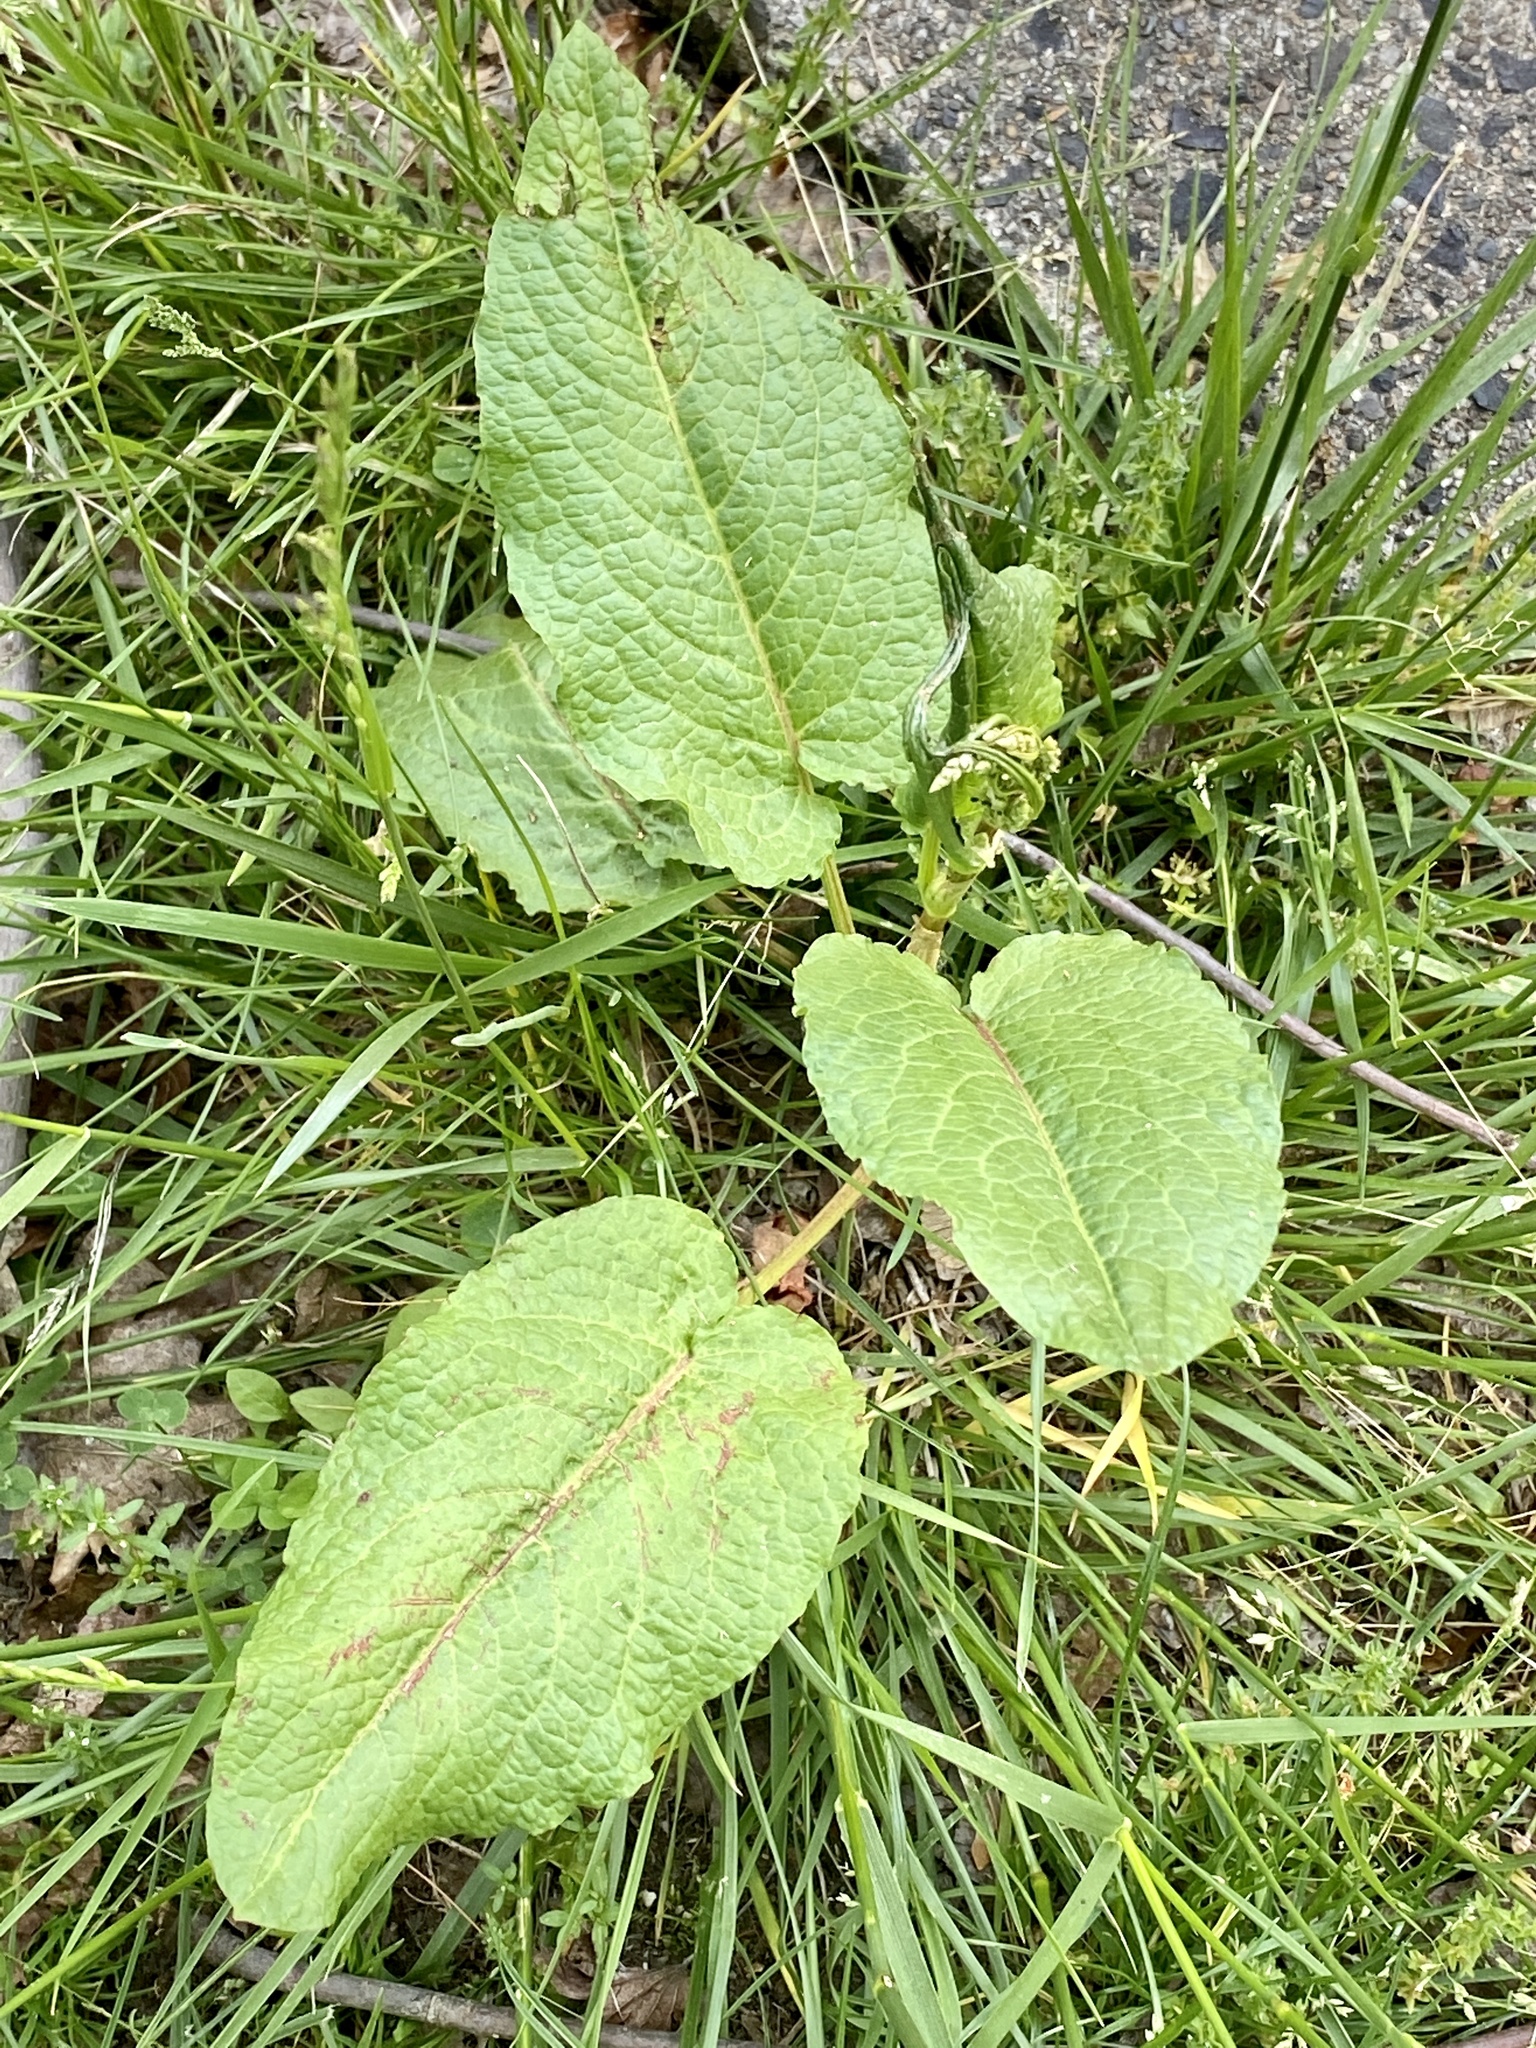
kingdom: Plantae
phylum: Tracheophyta
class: Magnoliopsida
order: Caryophyllales
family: Polygonaceae
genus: Rumex
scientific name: Rumex obtusifolius
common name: Bitter dock
